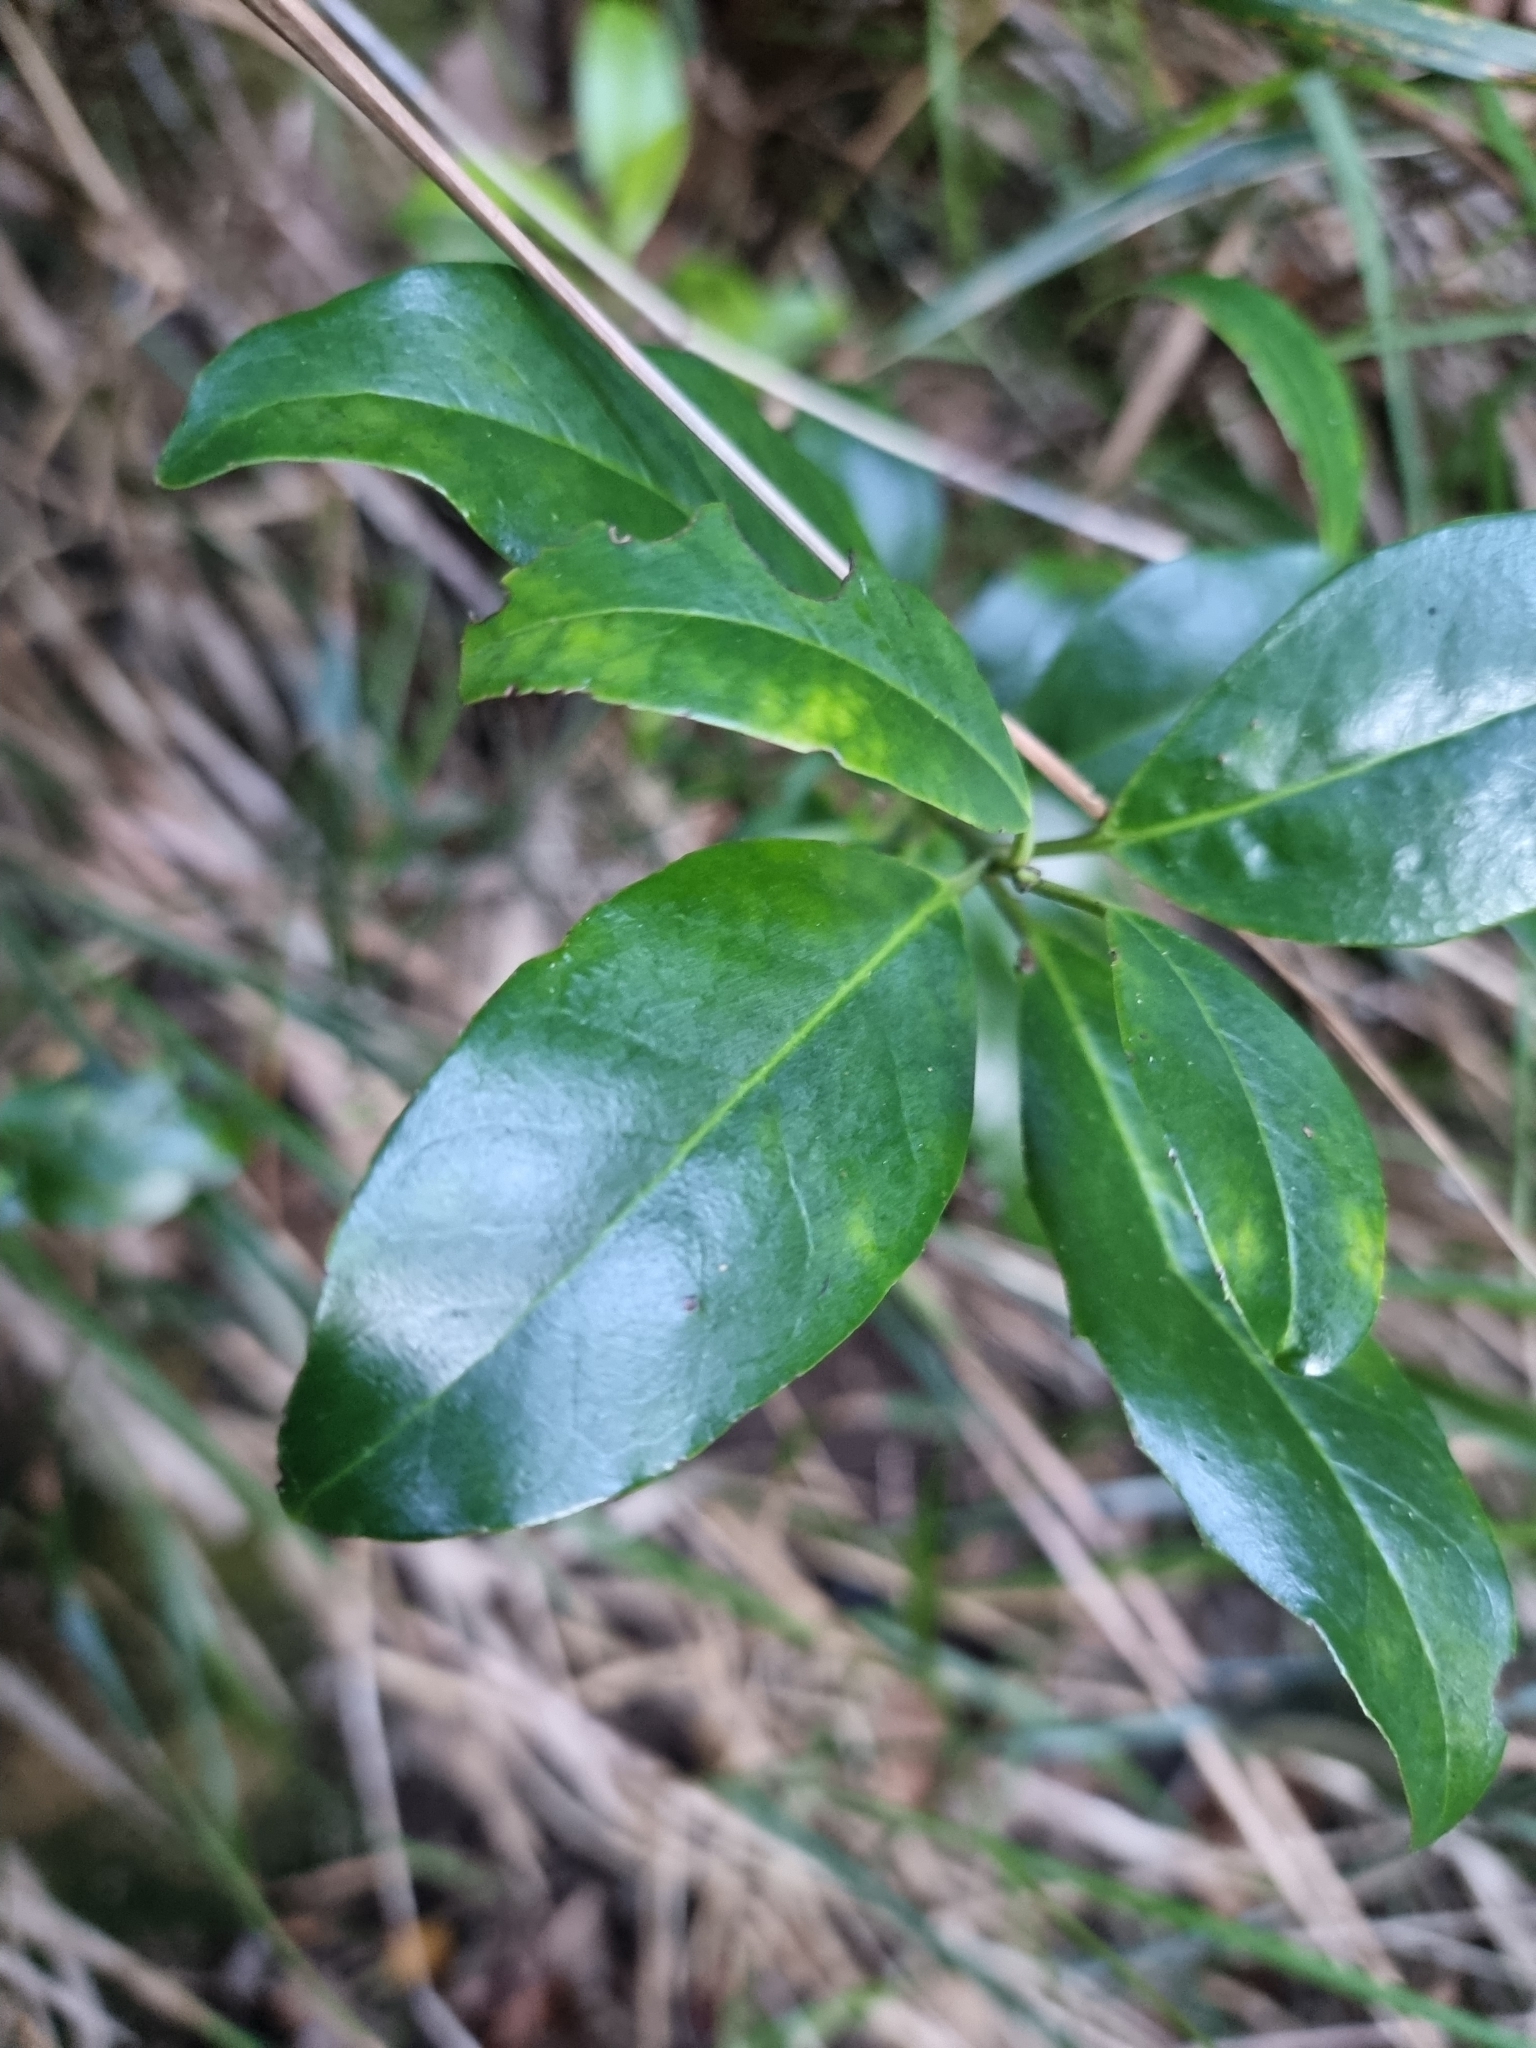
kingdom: Plantae
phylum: Tracheophyta
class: Magnoliopsida
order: Aquifoliales
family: Aquifoliaceae
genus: Ilex
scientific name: Ilex canariensis
